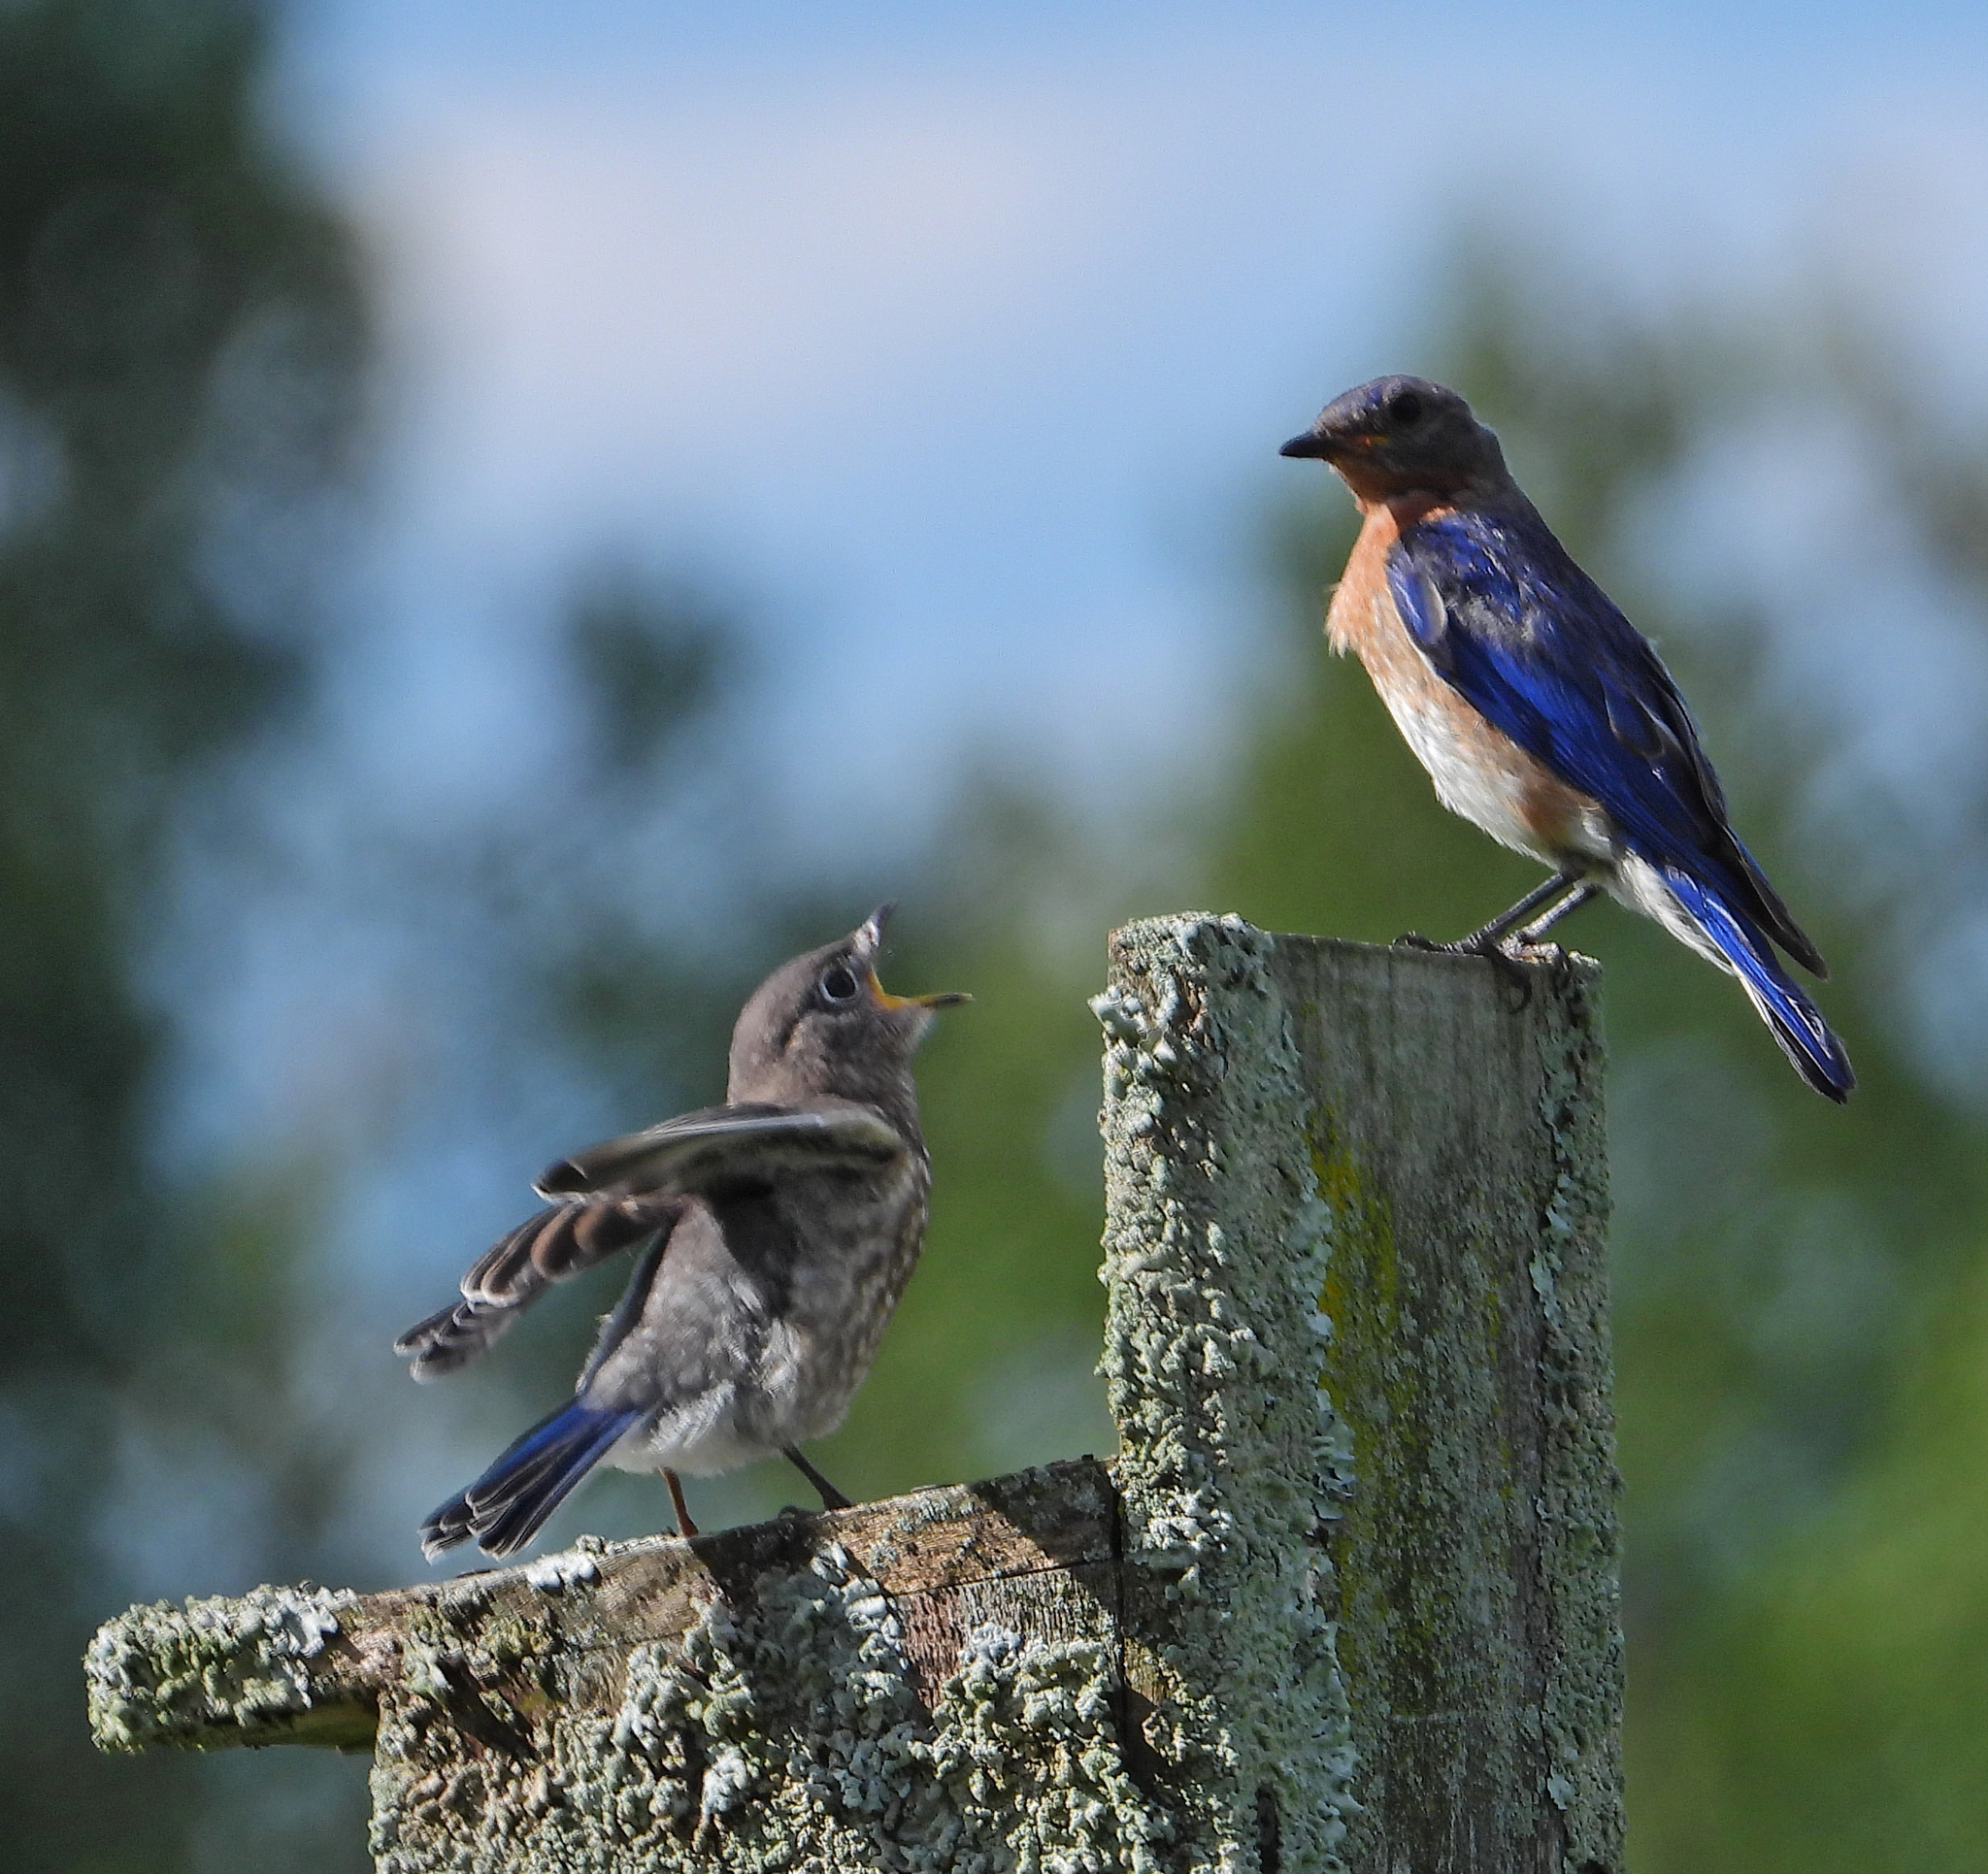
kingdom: Animalia
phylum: Chordata
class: Aves
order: Passeriformes
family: Turdidae
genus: Sialia
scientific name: Sialia sialis
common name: Eastern bluebird
